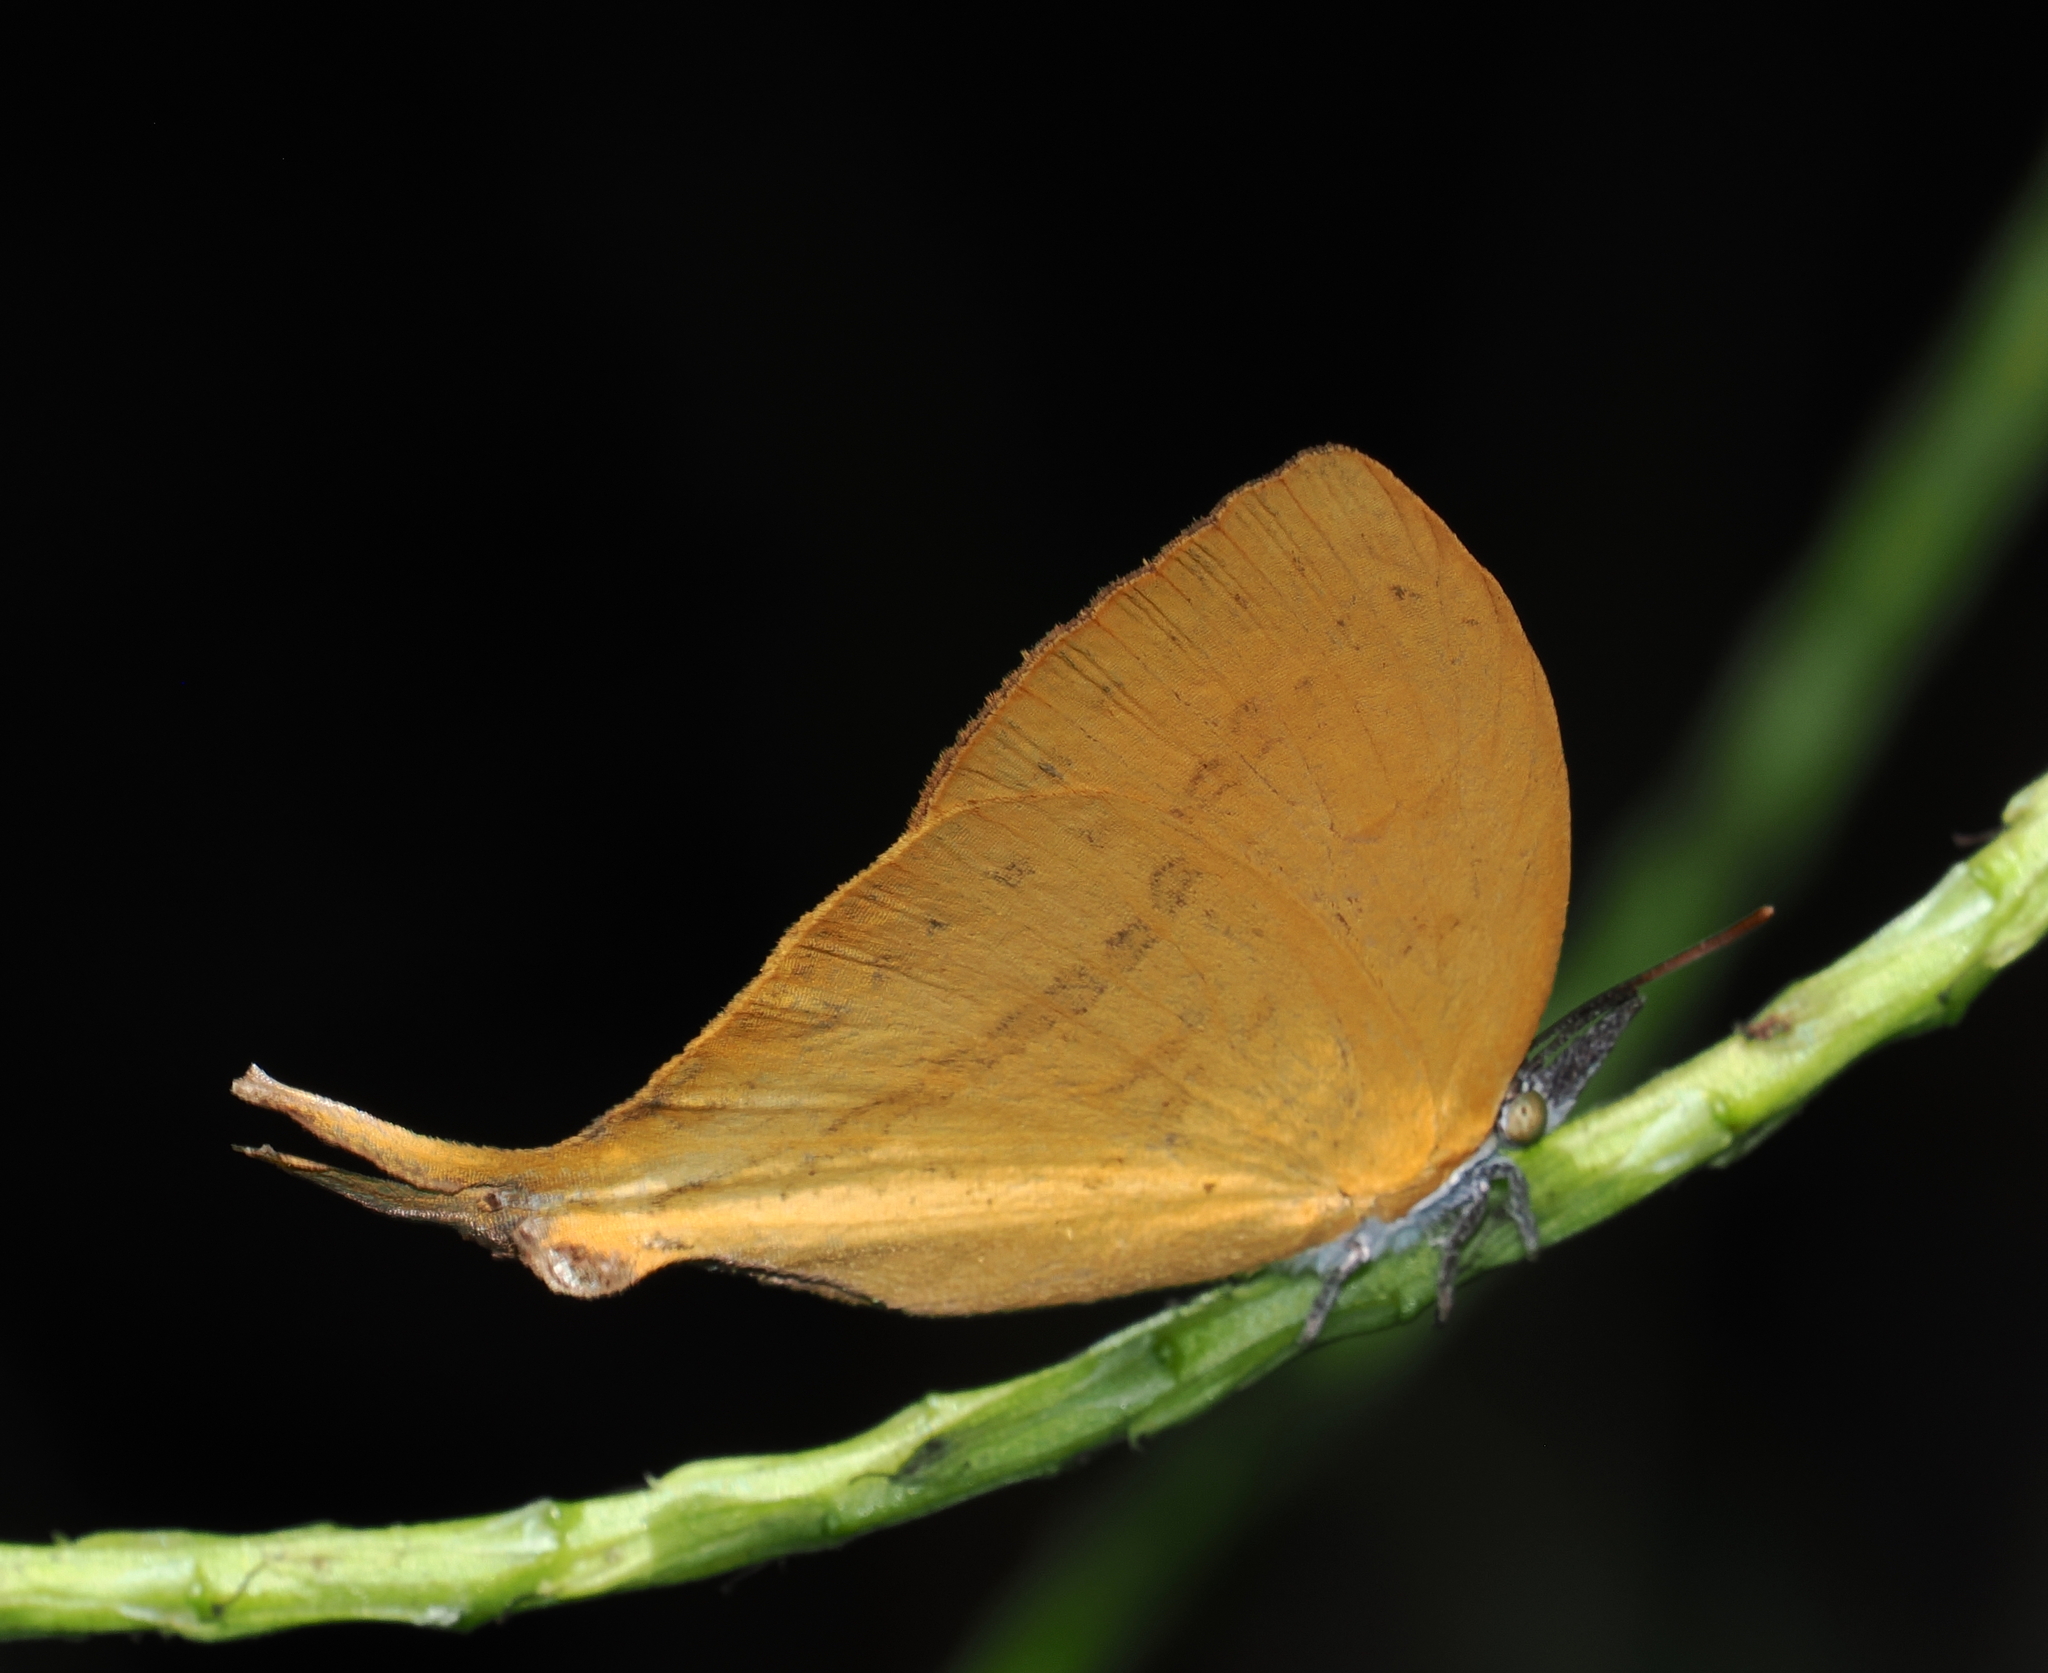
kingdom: Animalia
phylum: Arthropoda
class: Insecta
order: Lepidoptera
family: Lycaenidae
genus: Loxura
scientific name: Loxura atymnus
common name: Common yamfly
